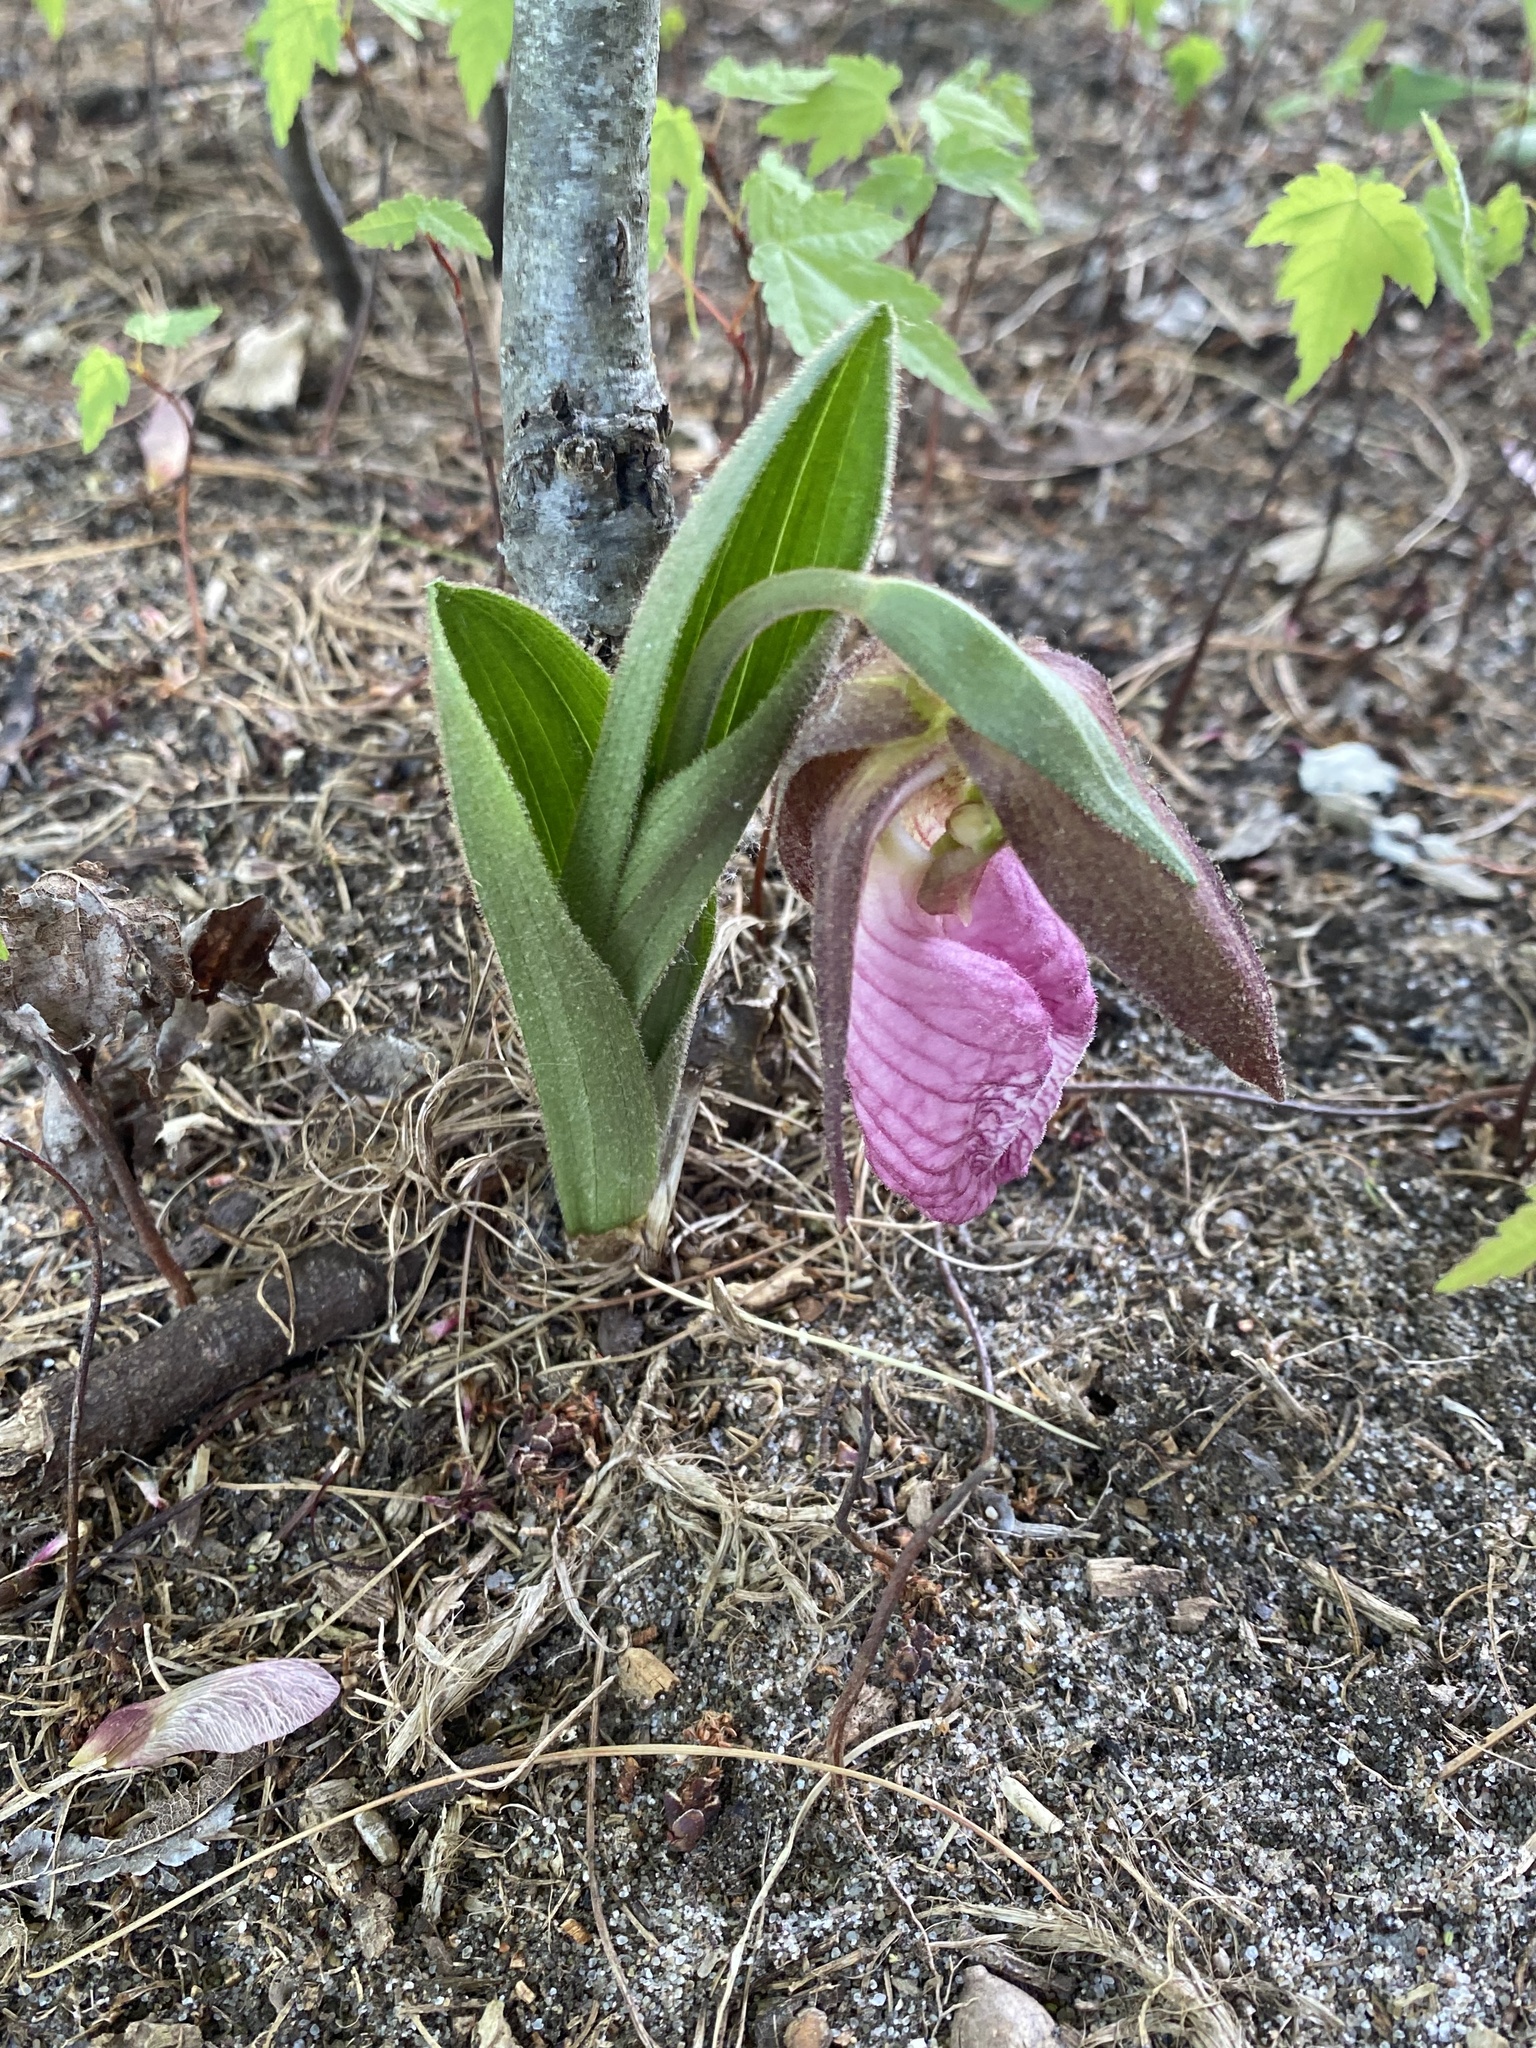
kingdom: Plantae
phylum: Tracheophyta
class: Liliopsida
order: Asparagales
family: Orchidaceae
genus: Cypripedium
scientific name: Cypripedium acaule
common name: Pink lady's-slipper
